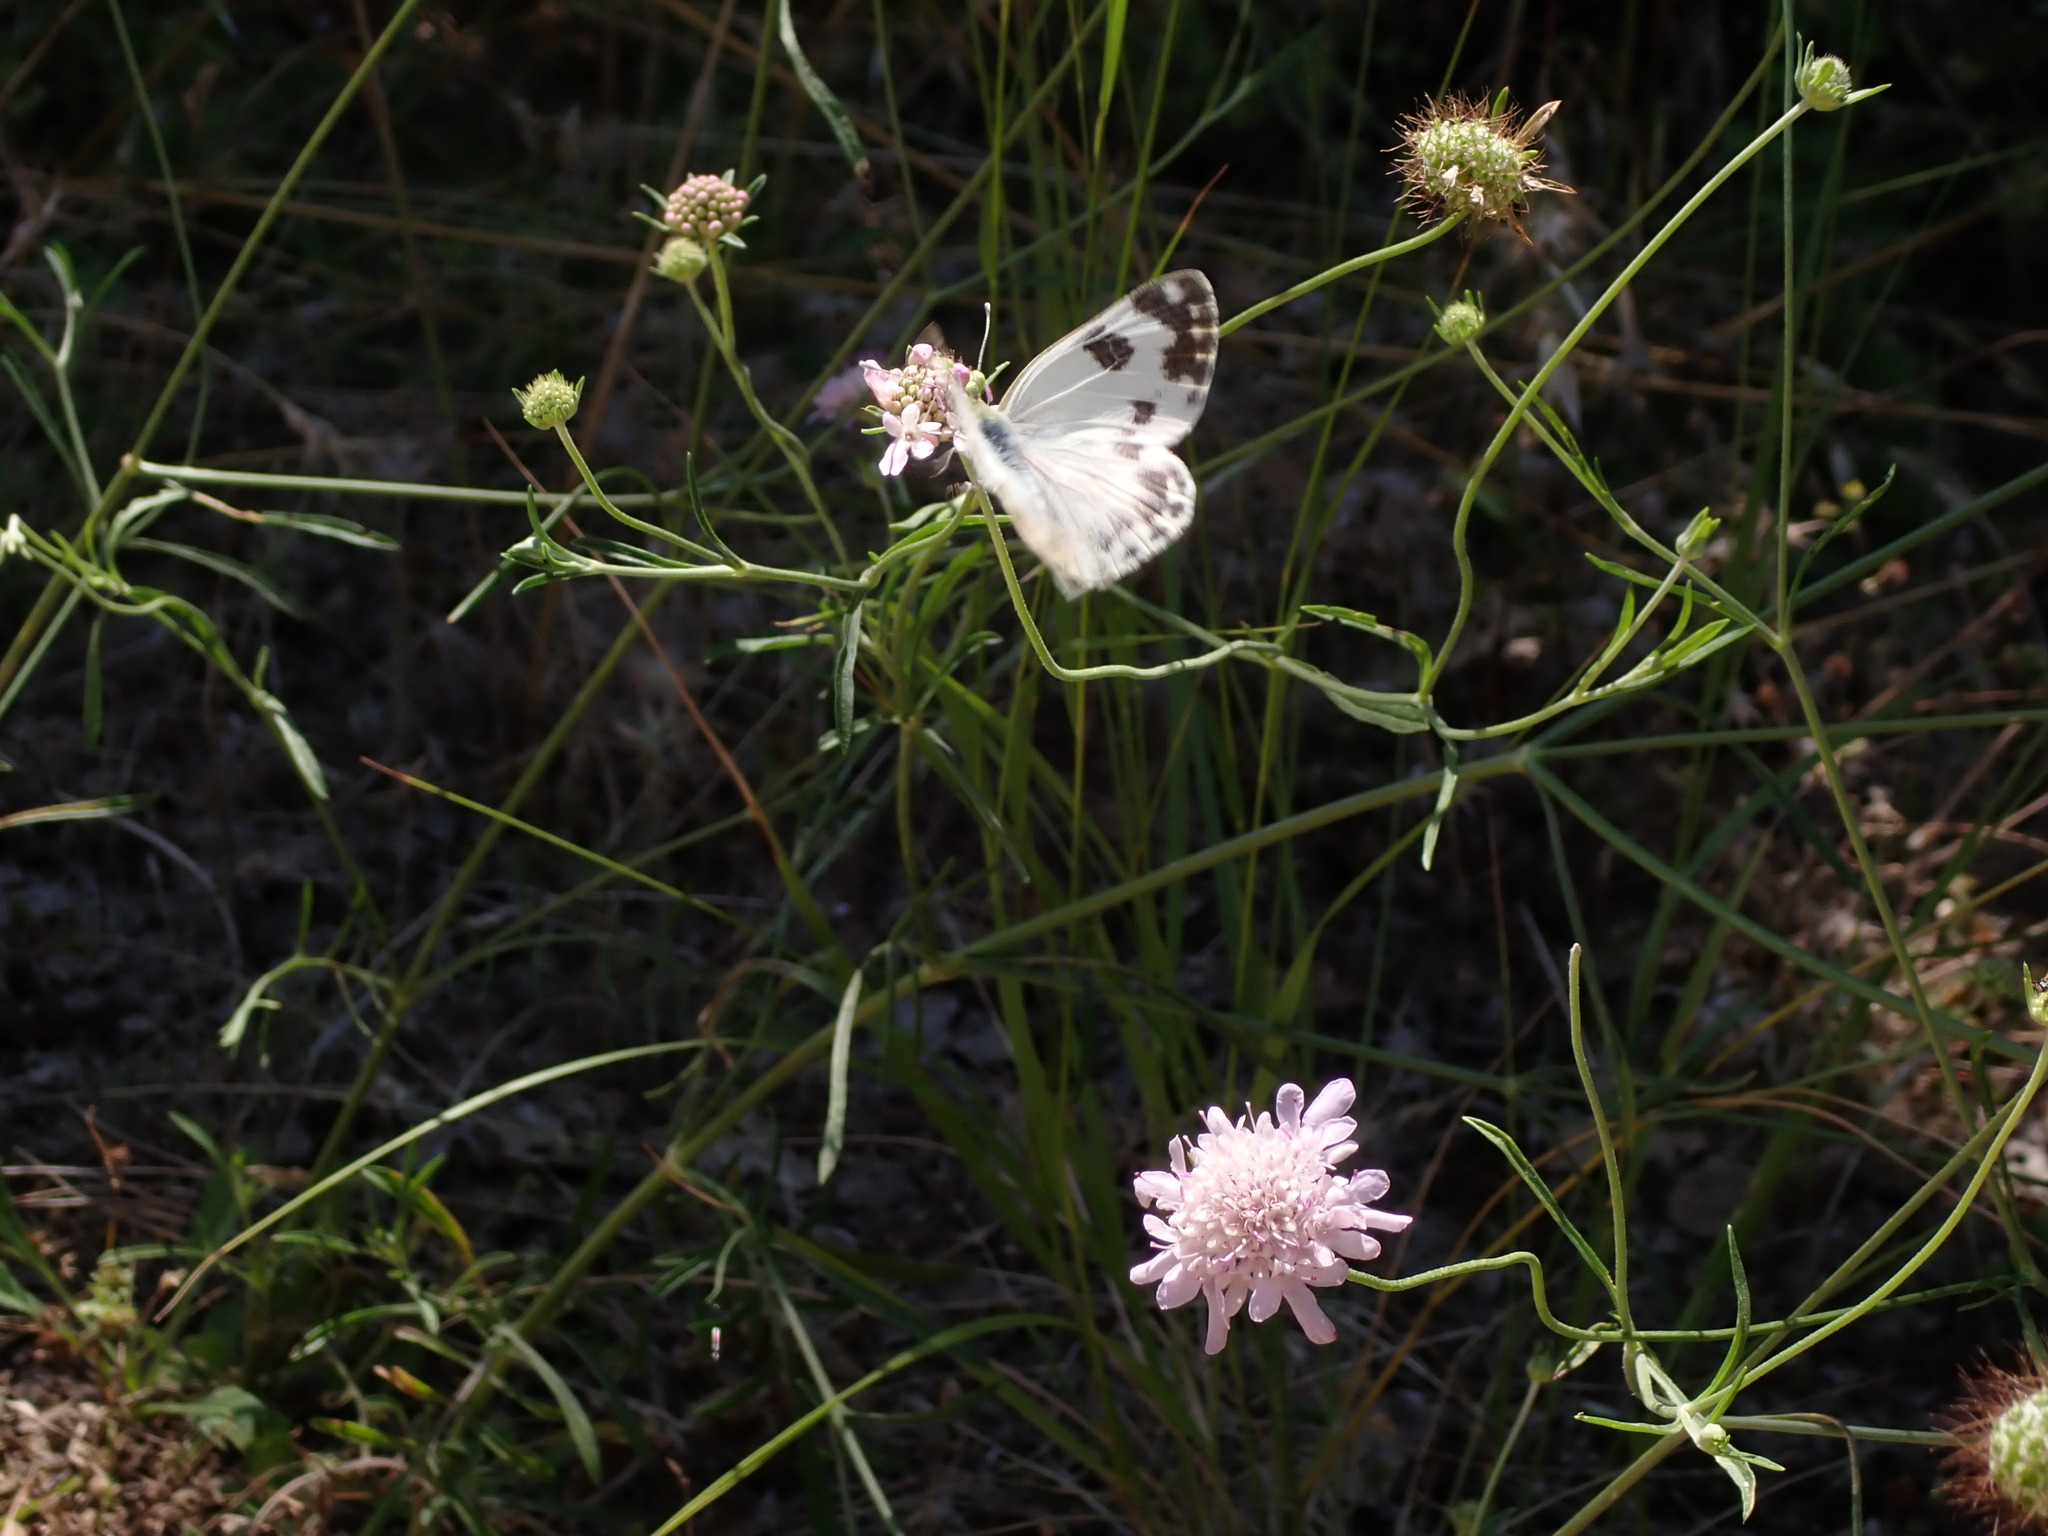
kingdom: Animalia
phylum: Arthropoda
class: Insecta
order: Lepidoptera
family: Pieridae
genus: Pontia
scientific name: Pontia daplidice
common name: Bath white
